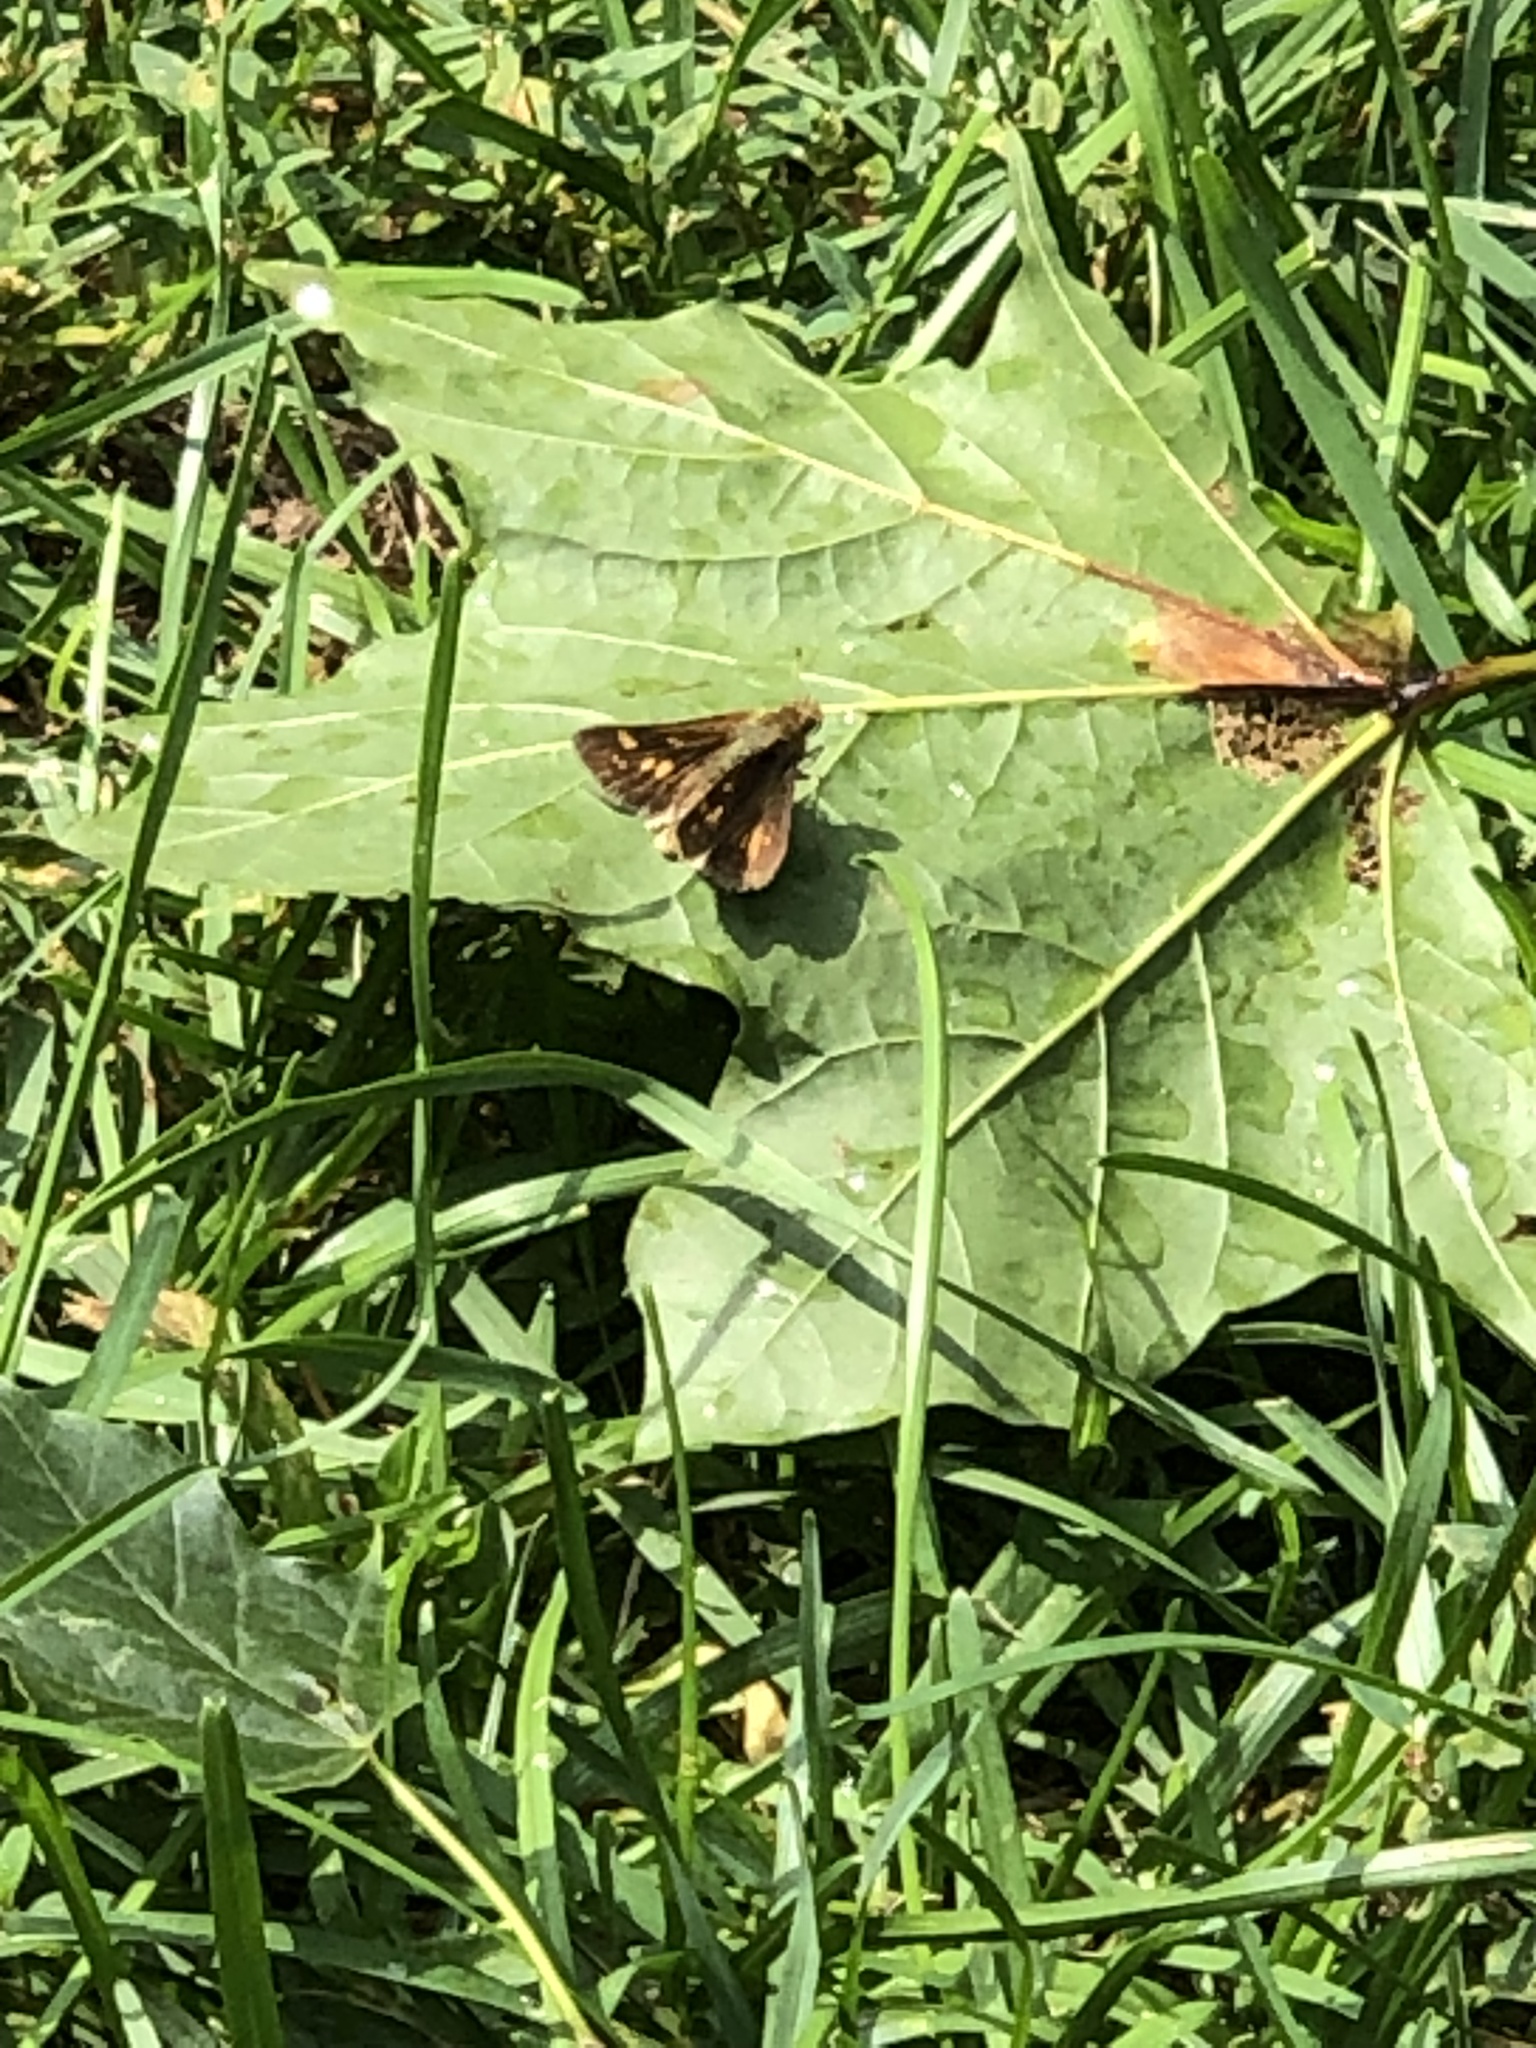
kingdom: Animalia
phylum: Arthropoda
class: Insecta
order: Lepidoptera
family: Hesperiidae
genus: Polites
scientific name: Polites coras
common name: Peck's skipper
